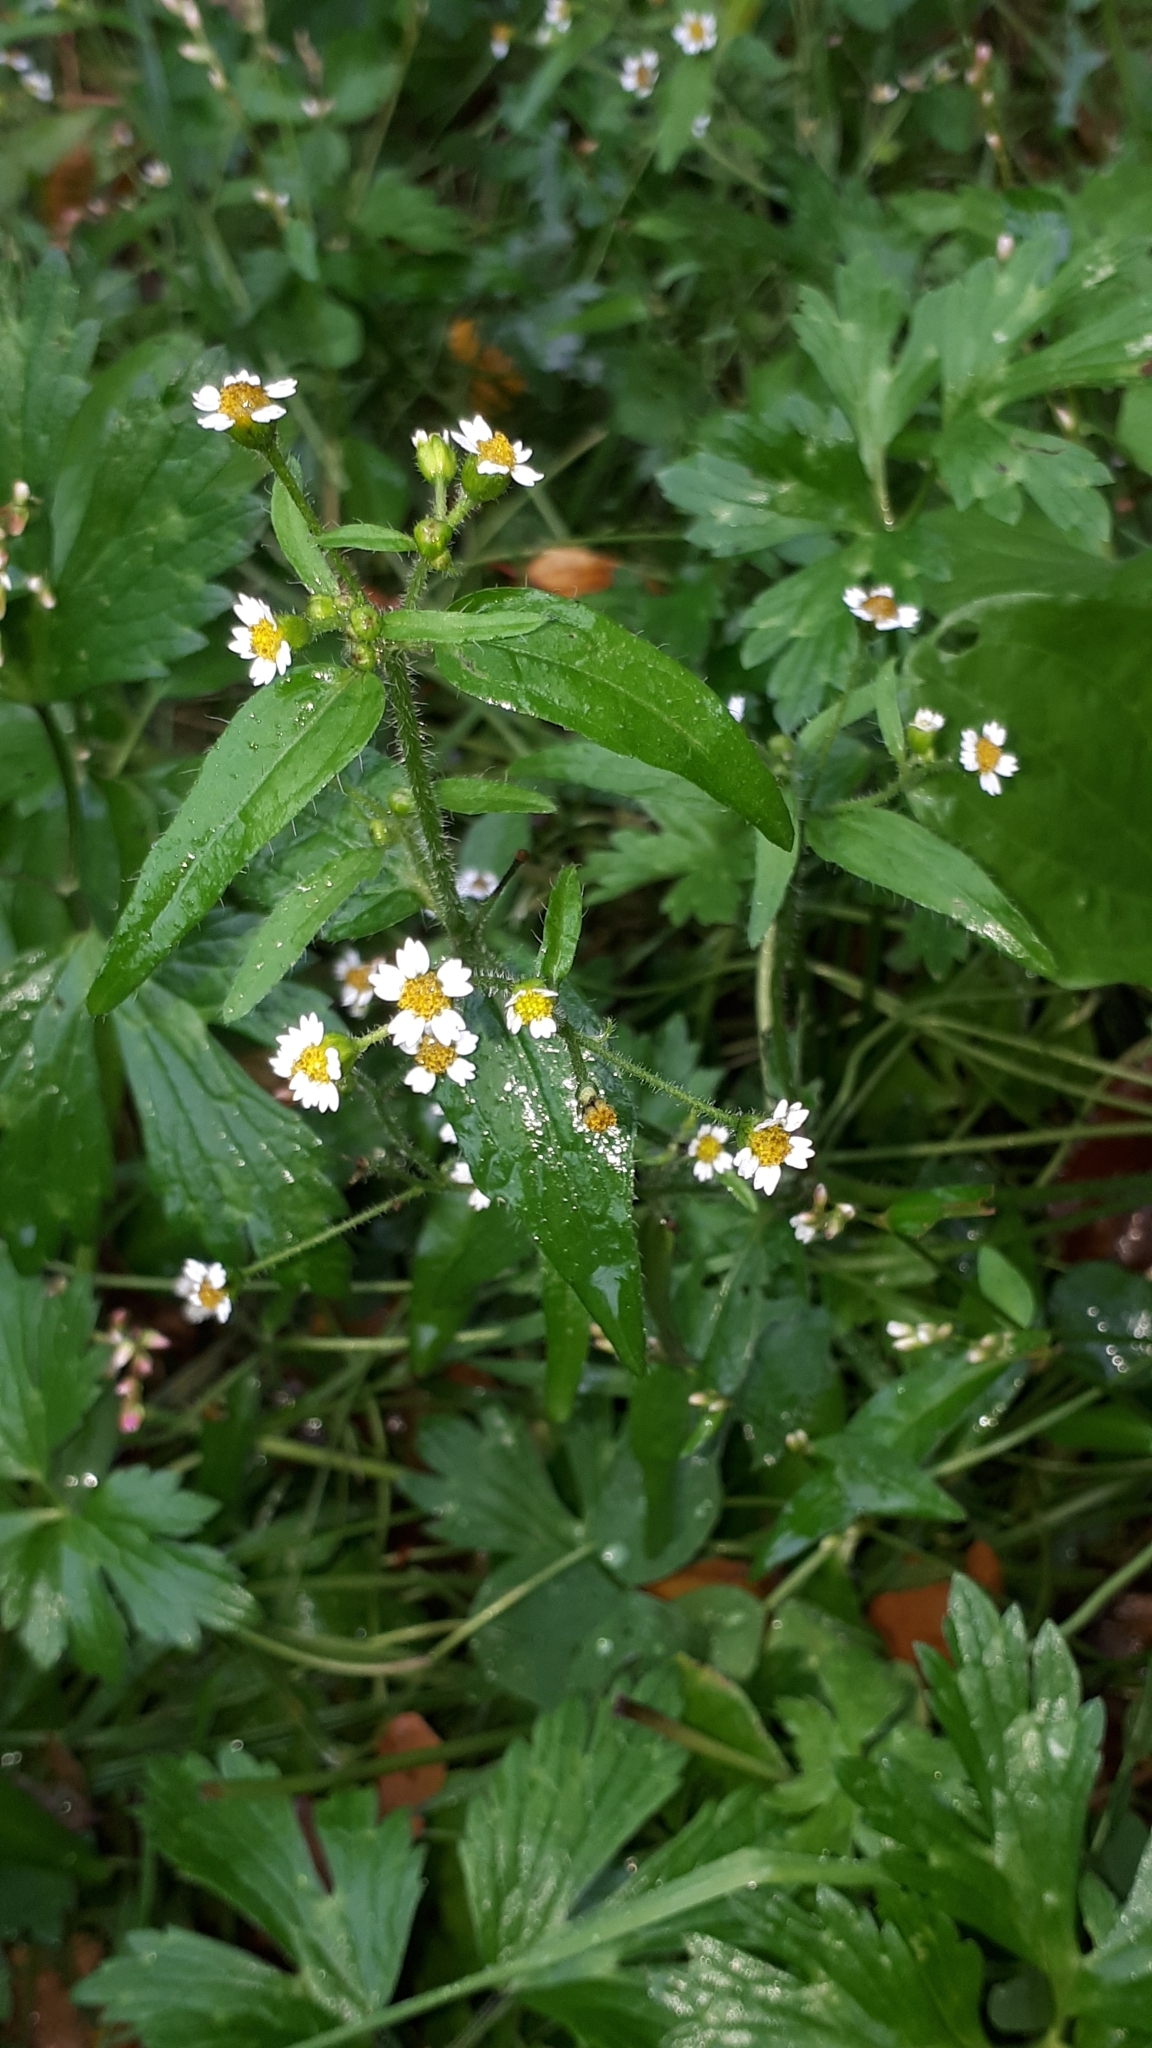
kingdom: Plantae
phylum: Tracheophyta
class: Magnoliopsida
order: Asterales
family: Asteraceae
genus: Galinsoga
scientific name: Galinsoga quadriradiata
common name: Shaggy soldier
